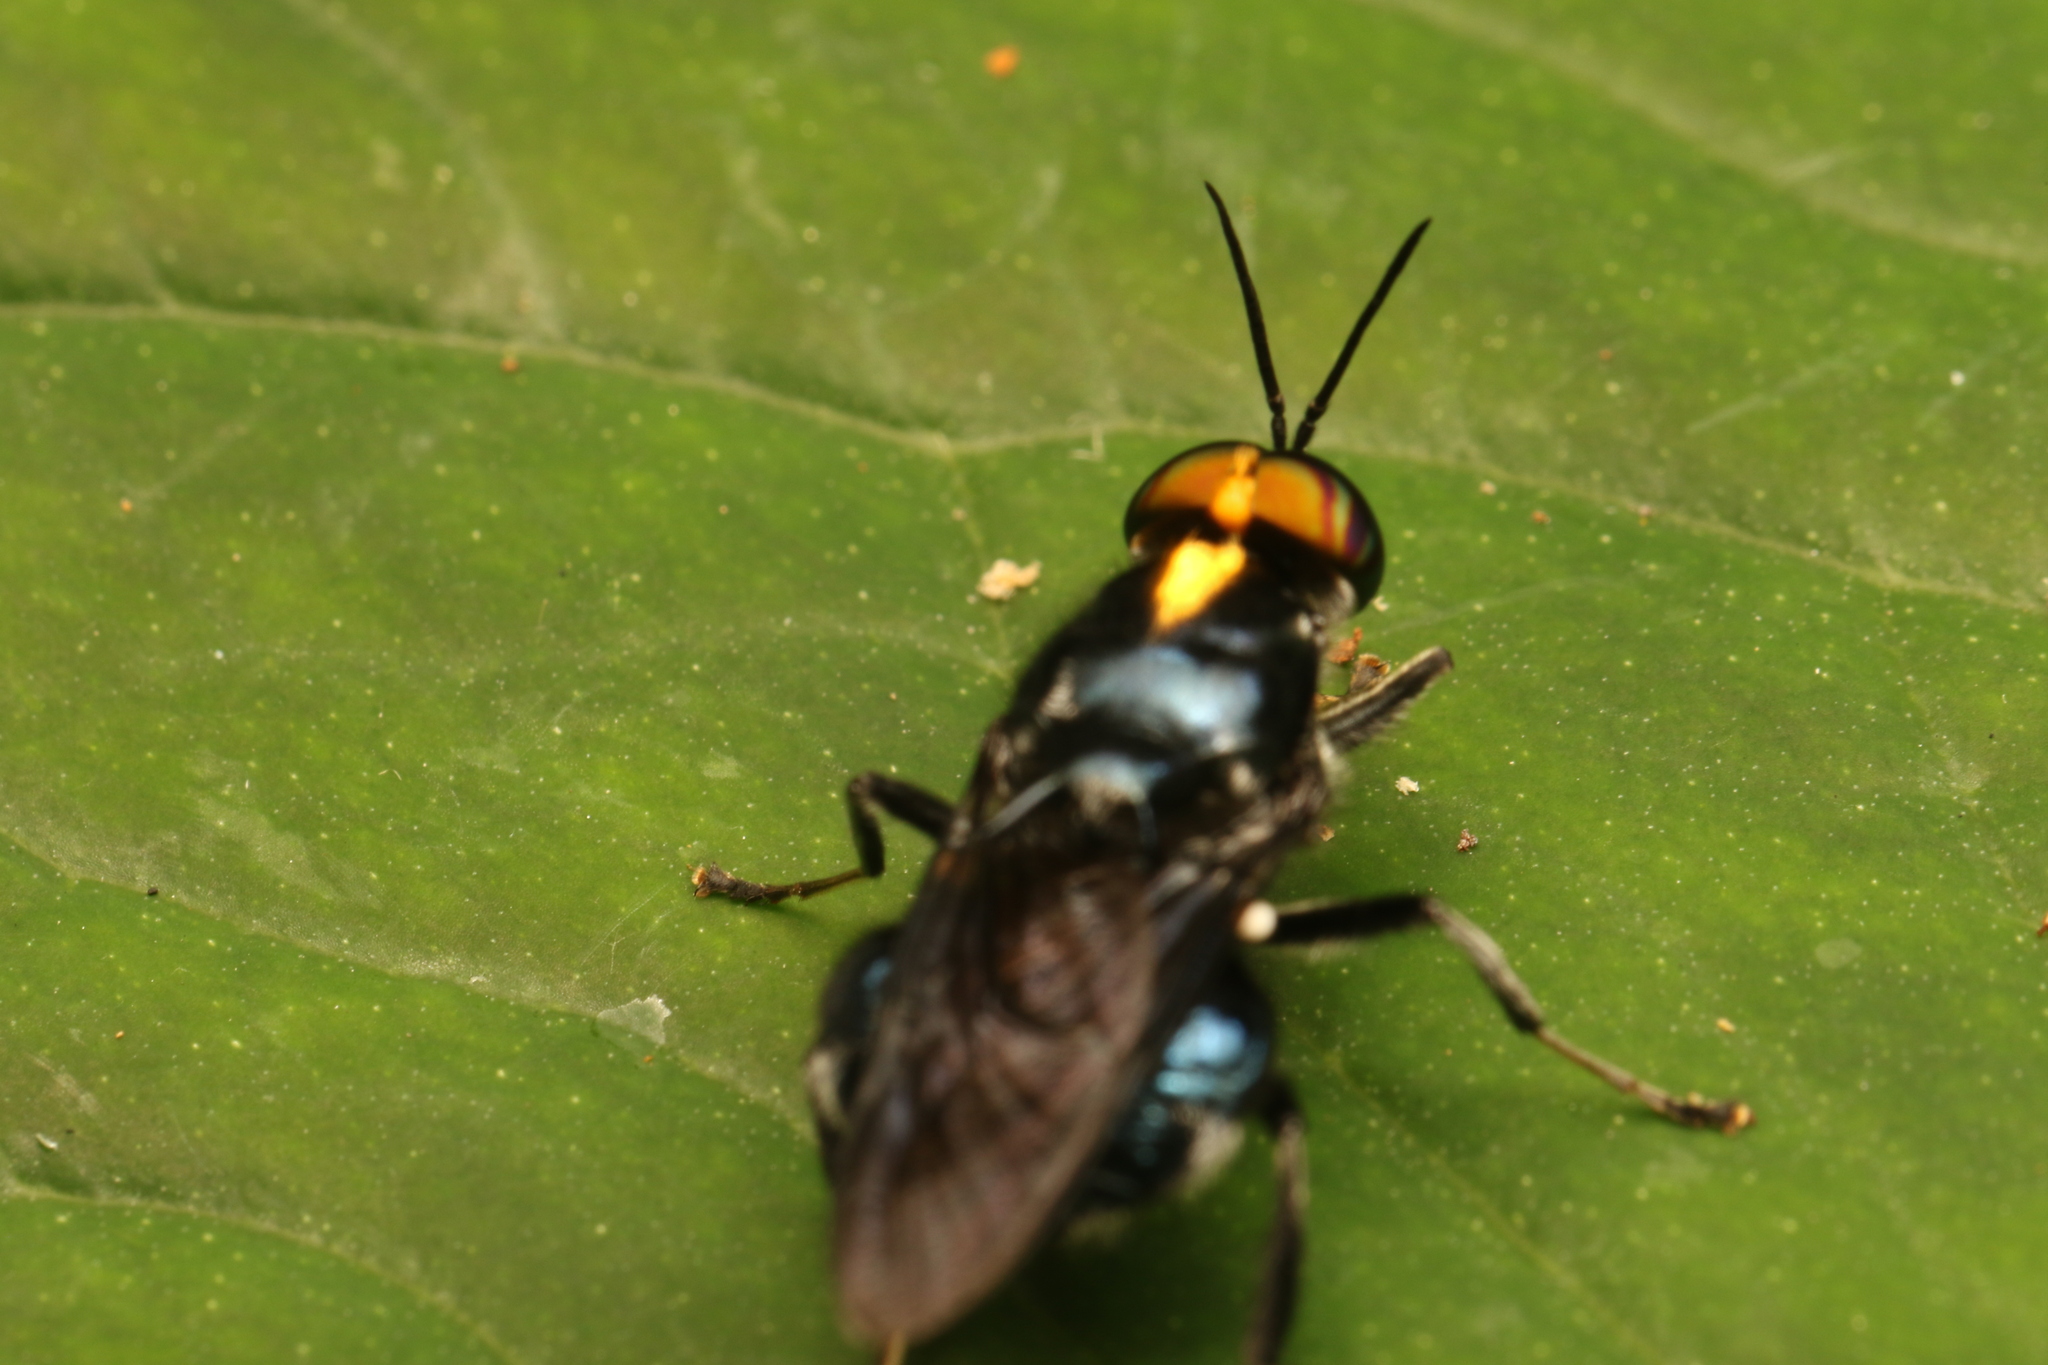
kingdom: Animalia
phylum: Arthropoda
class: Insecta
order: Diptera
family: Stratiomyidae
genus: Cyphomyia
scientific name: Cyphomyia aurifrons
